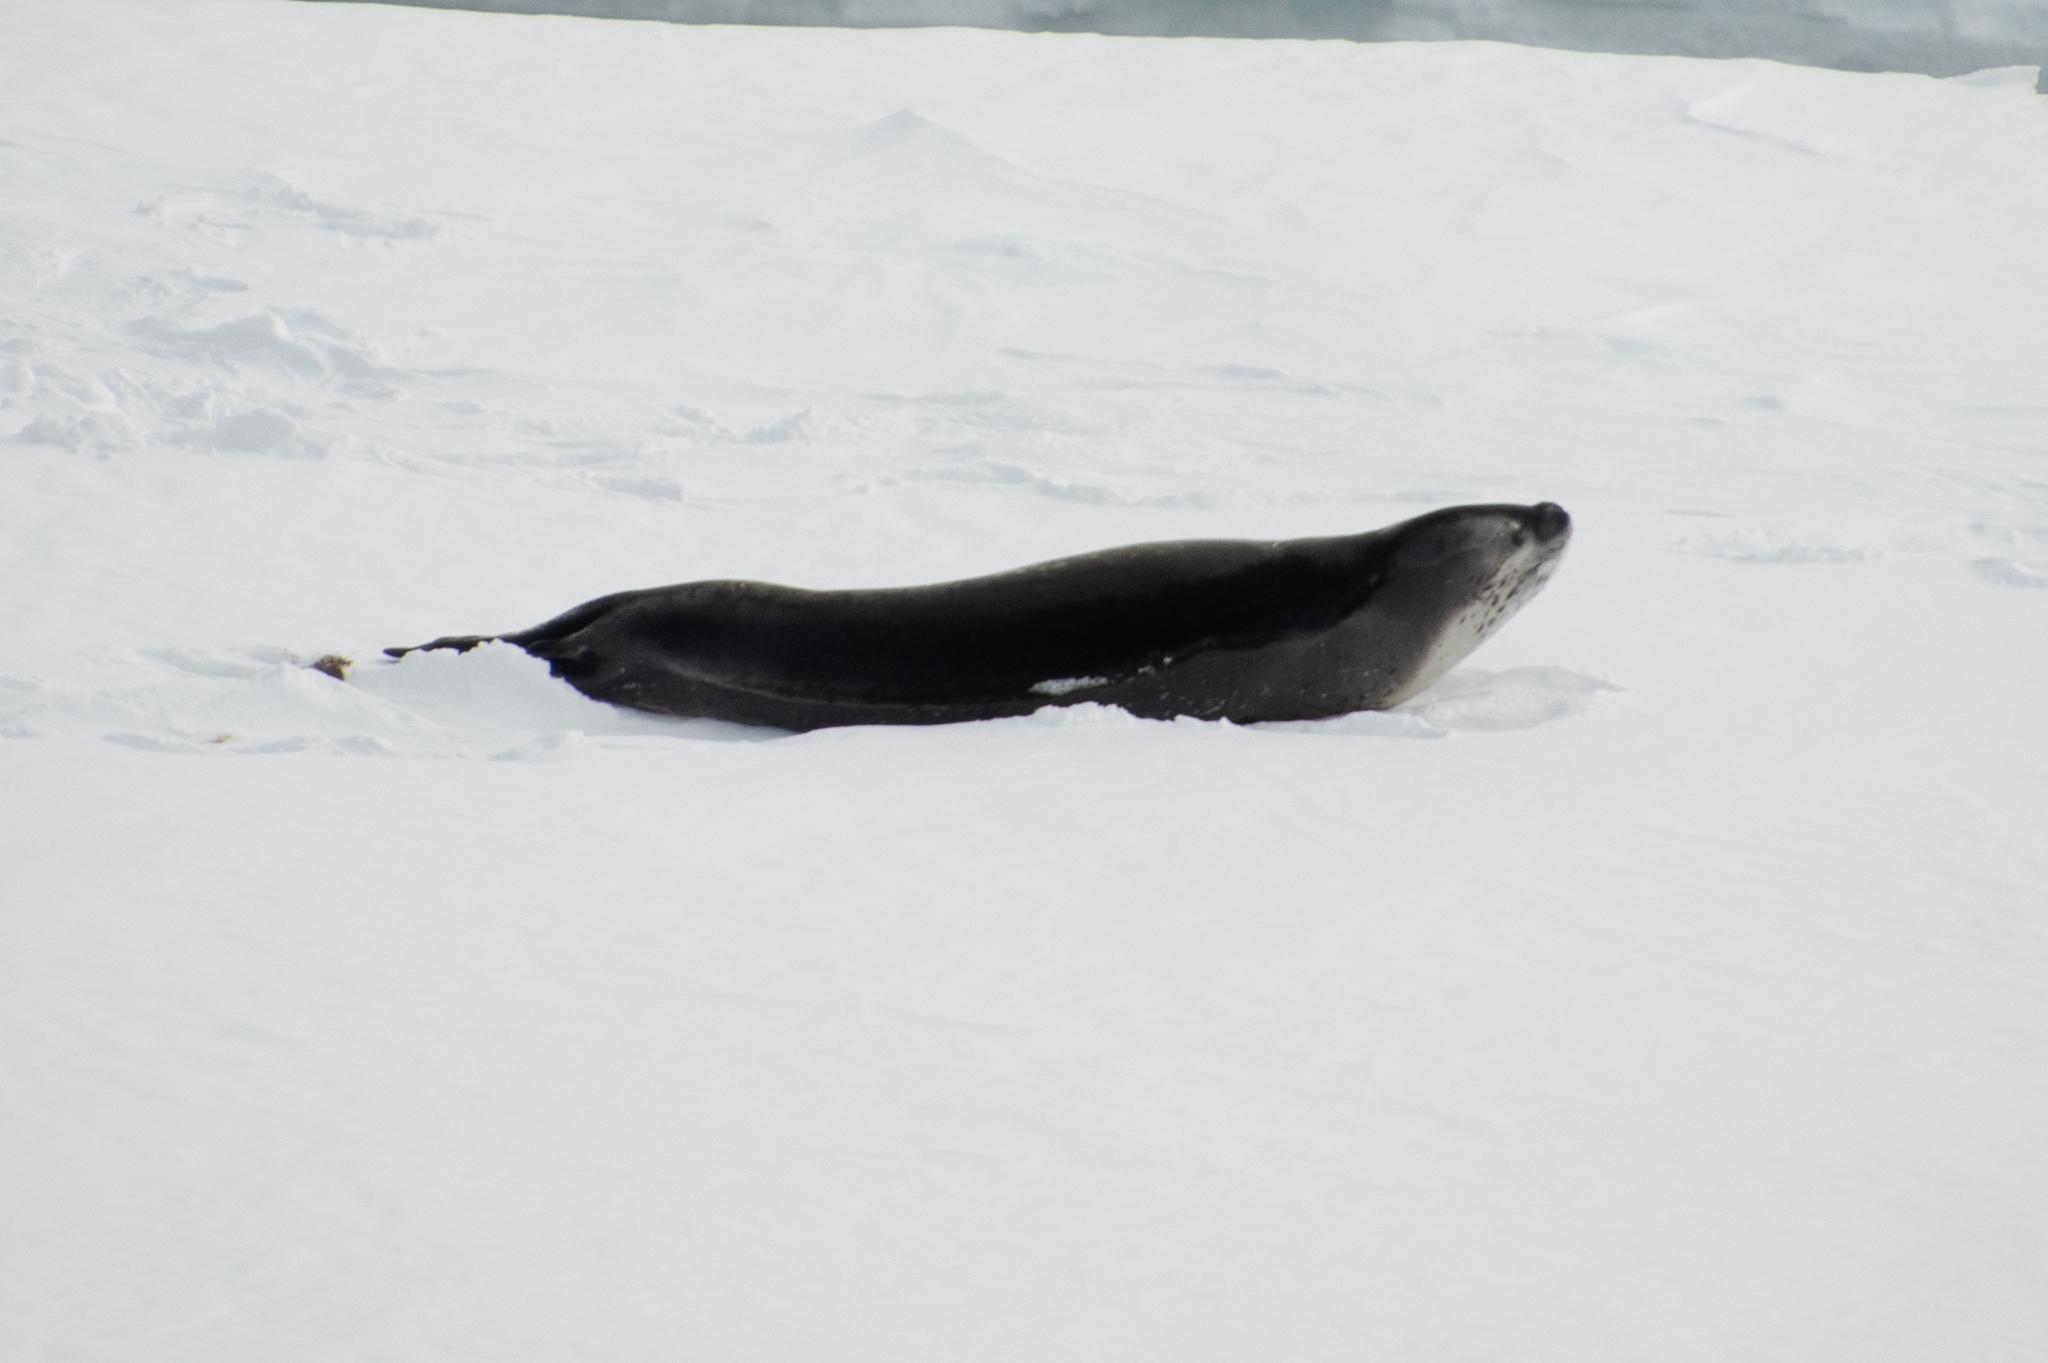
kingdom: Animalia
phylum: Chordata
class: Mammalia
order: Carnivora
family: Phocidae
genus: Hydrurga
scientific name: Hydrurga leptonyx
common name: Leopard seal
